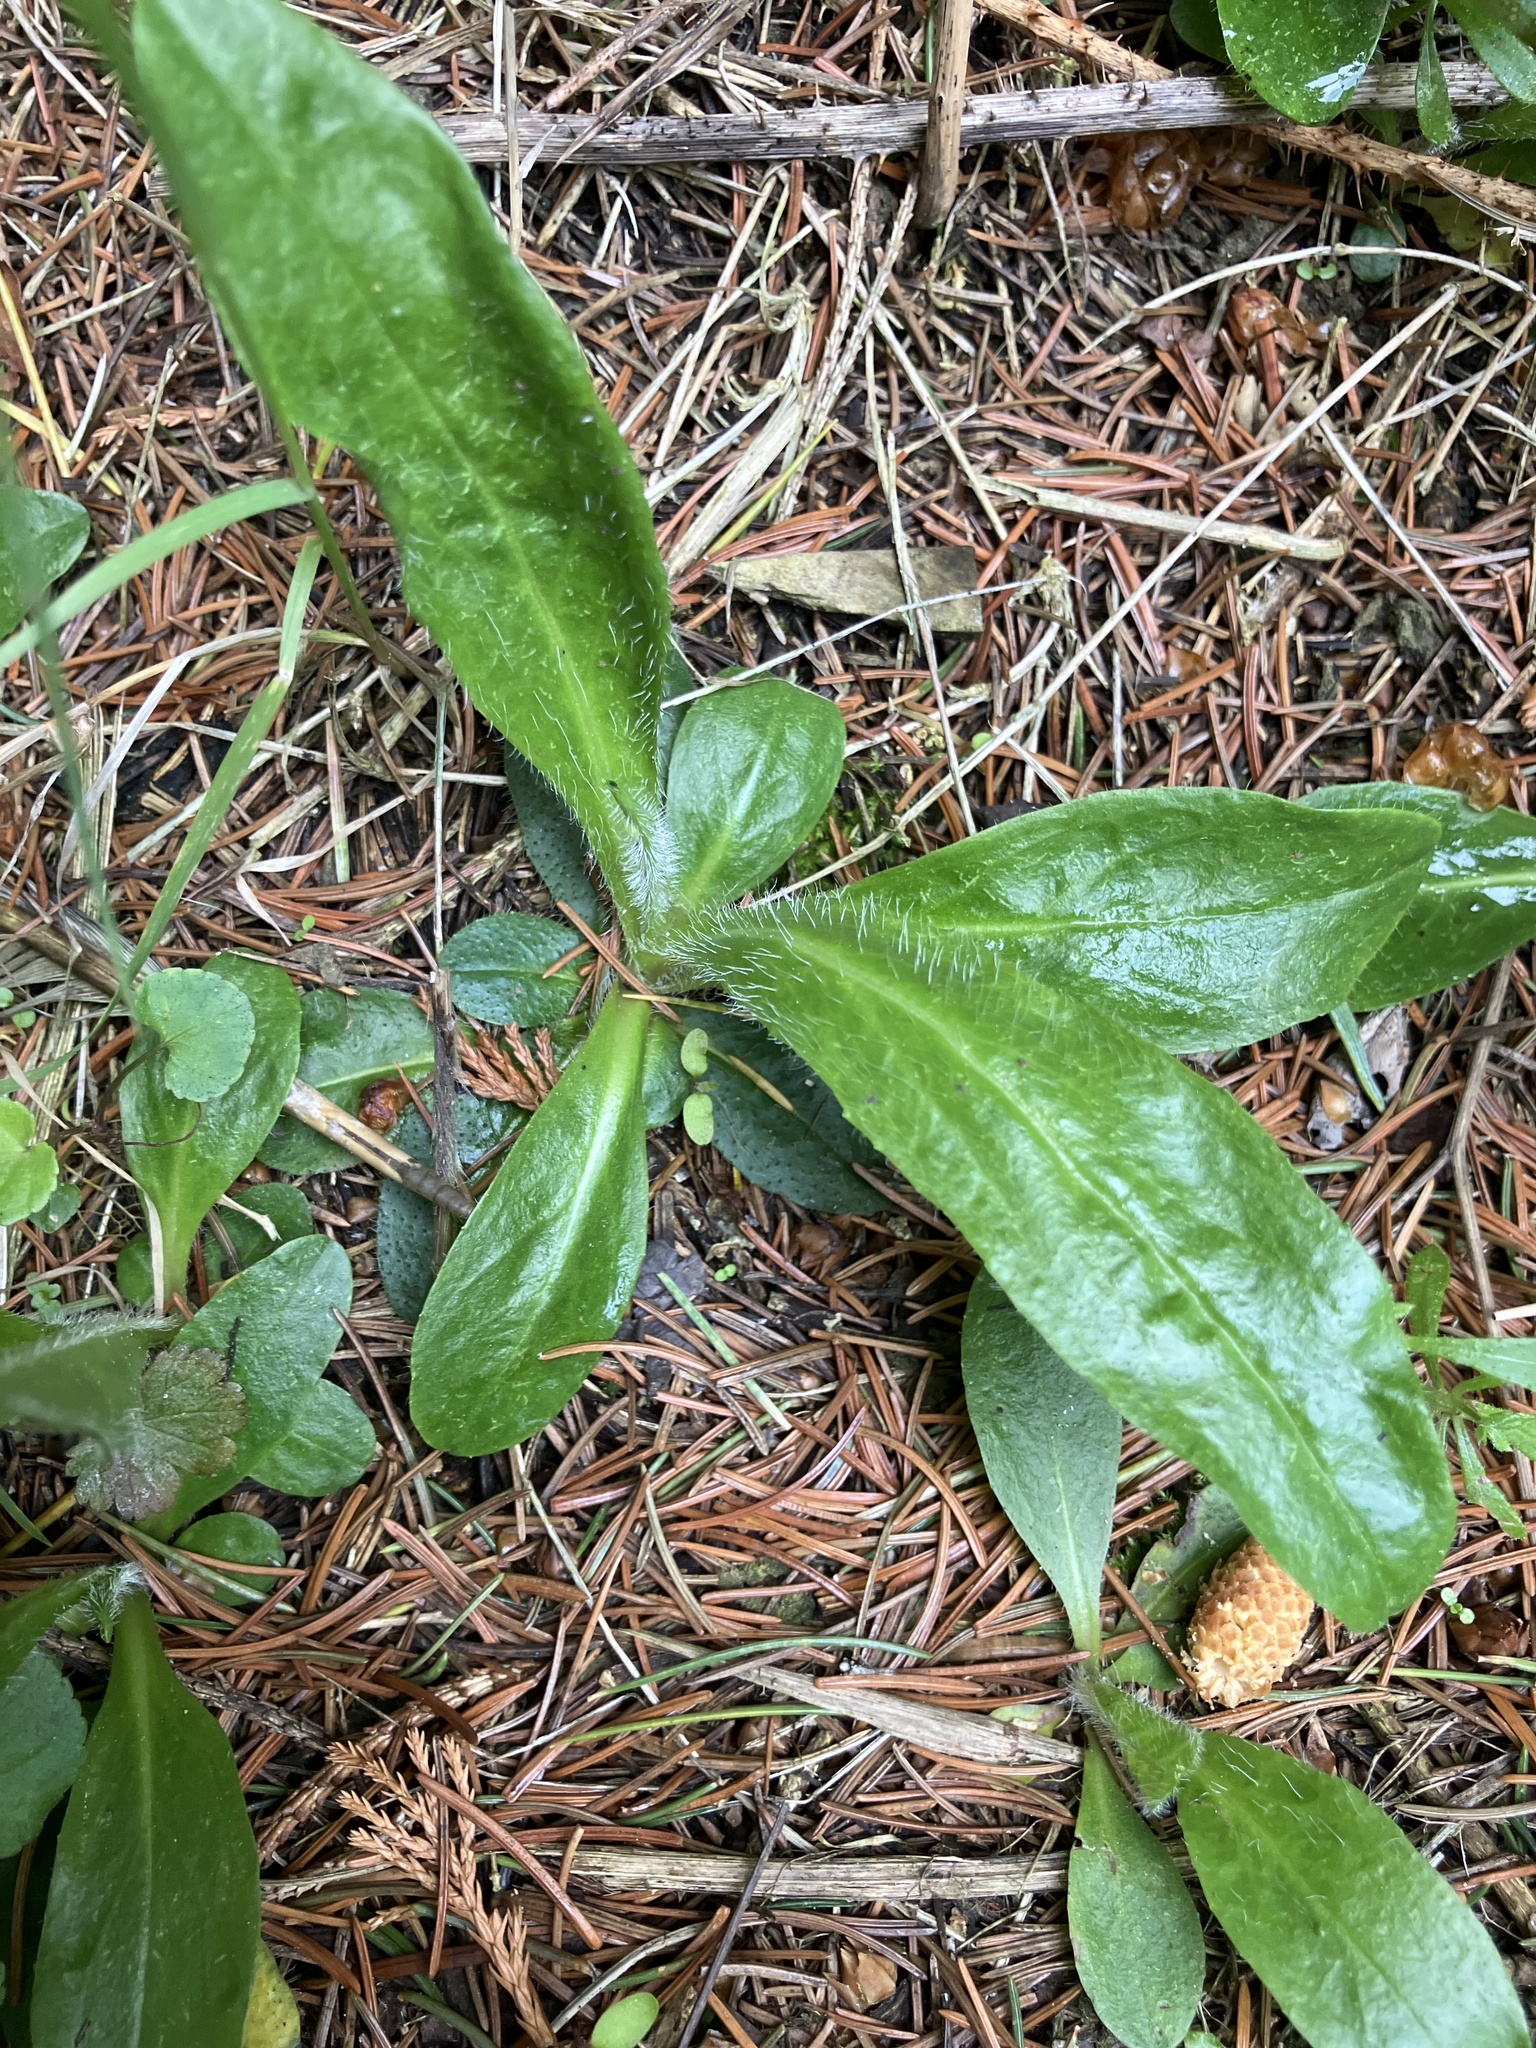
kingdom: Plantae
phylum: Tracheophyta
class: Magnoliopsida
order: Asterales
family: Asteraceae
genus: Pilosella
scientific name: Pilosella aurantiaca
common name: Fox-and-cubs
